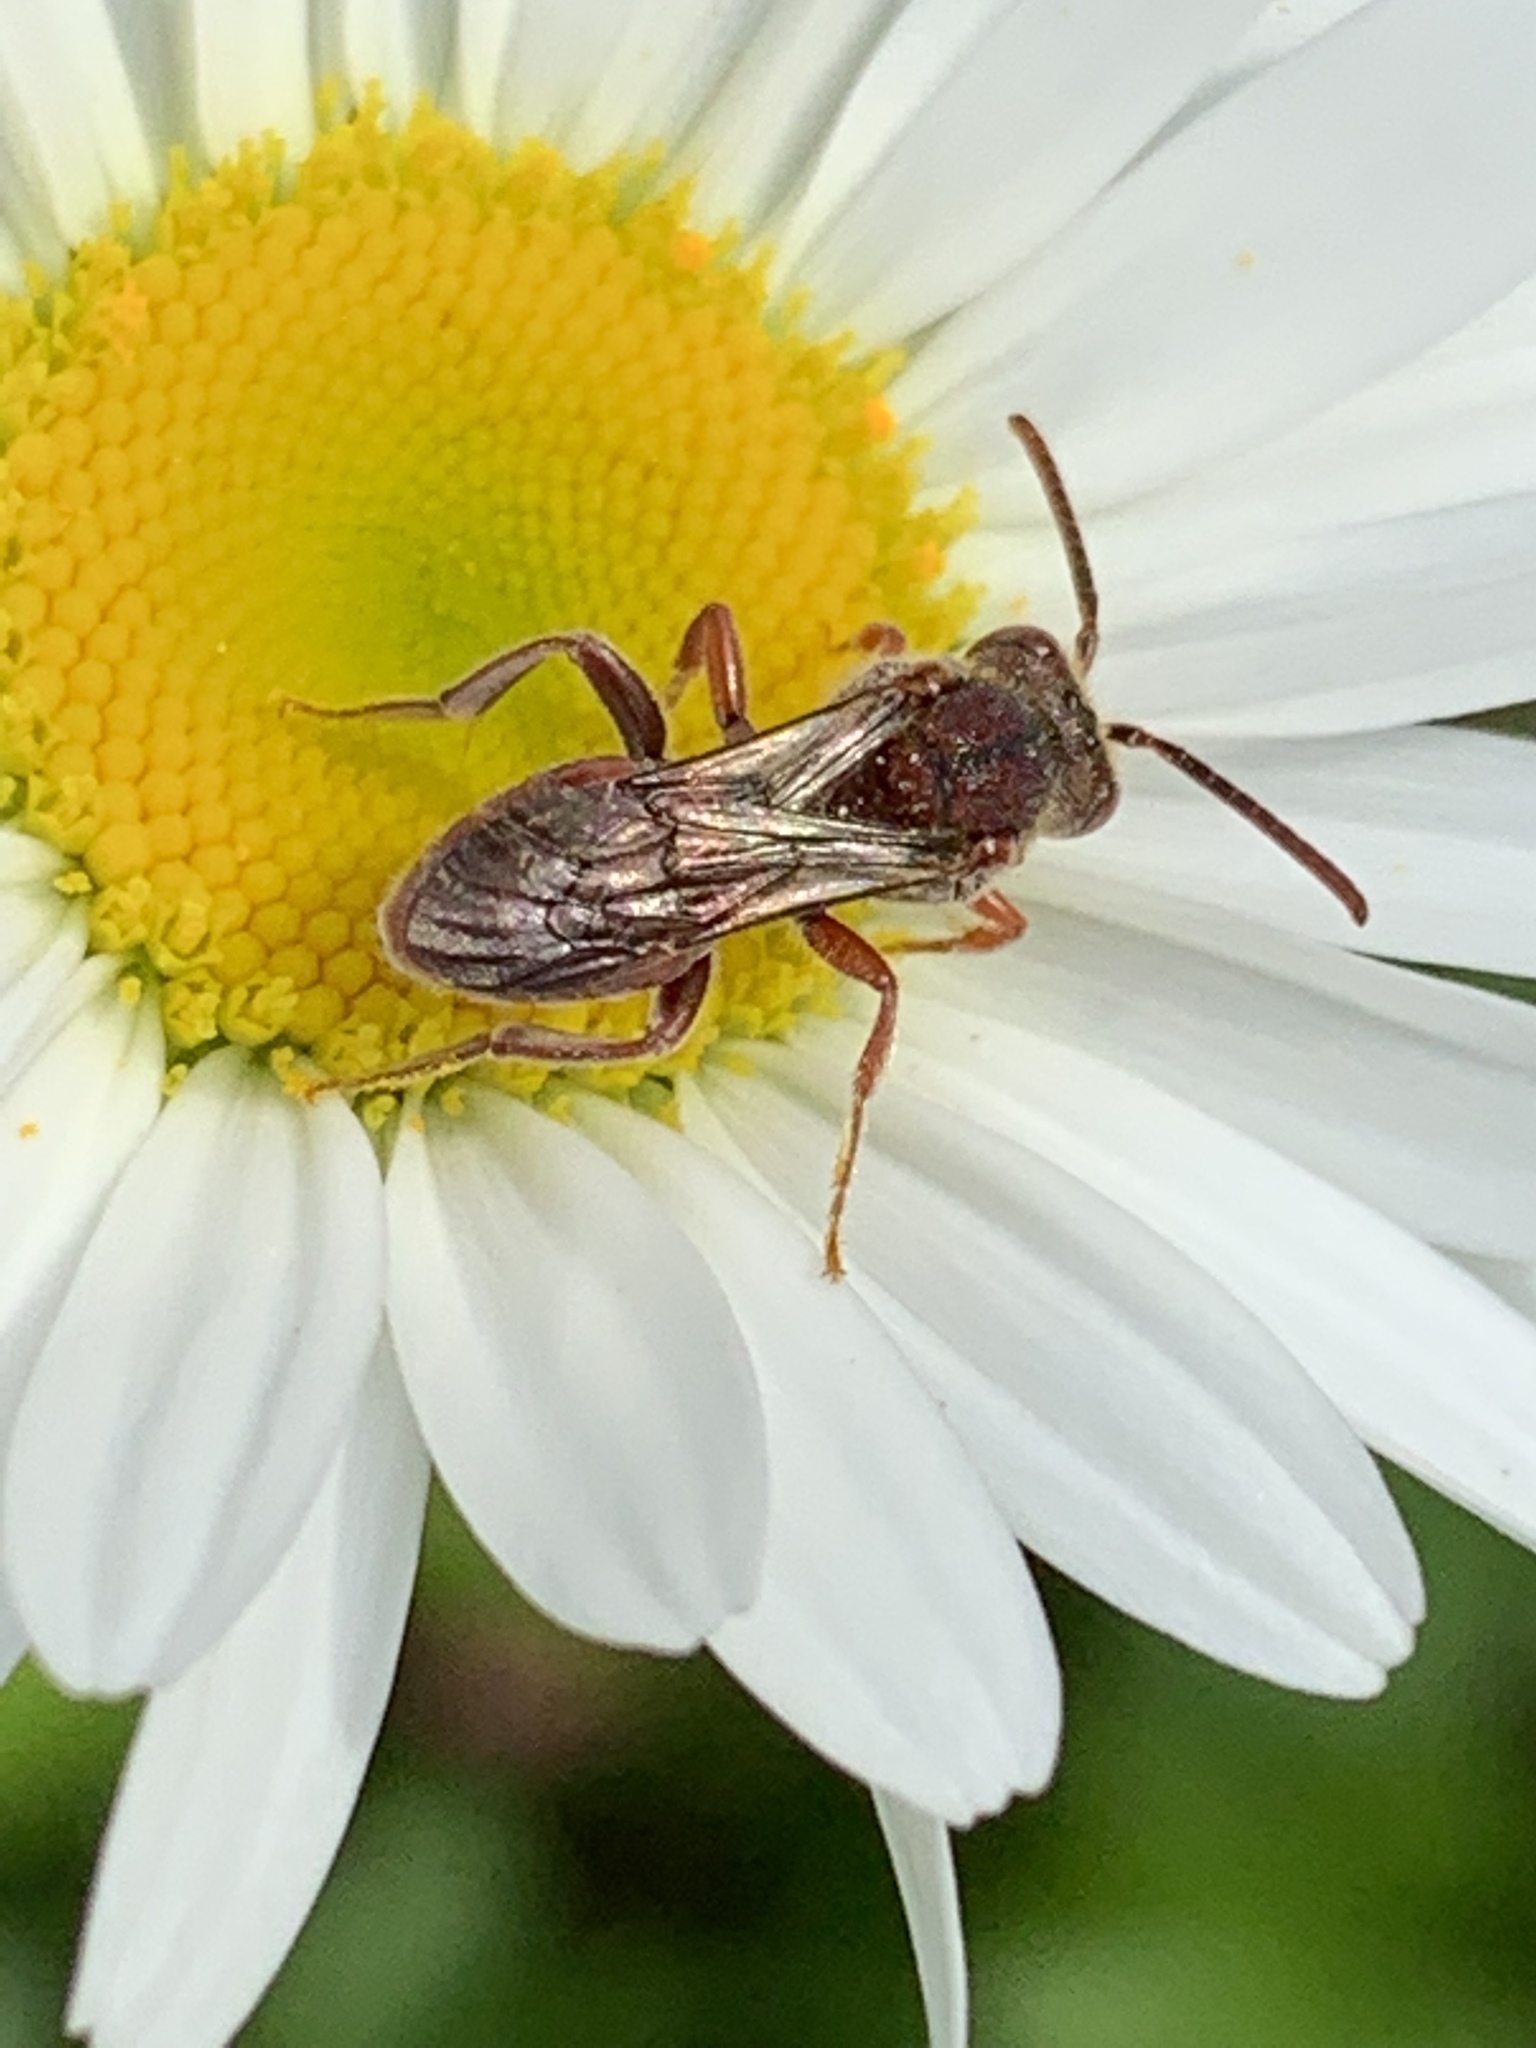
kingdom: Animalia
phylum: Arthropoda
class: Insecta
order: Hymenoptera
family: Apidae
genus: Nomada
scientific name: Nomada
